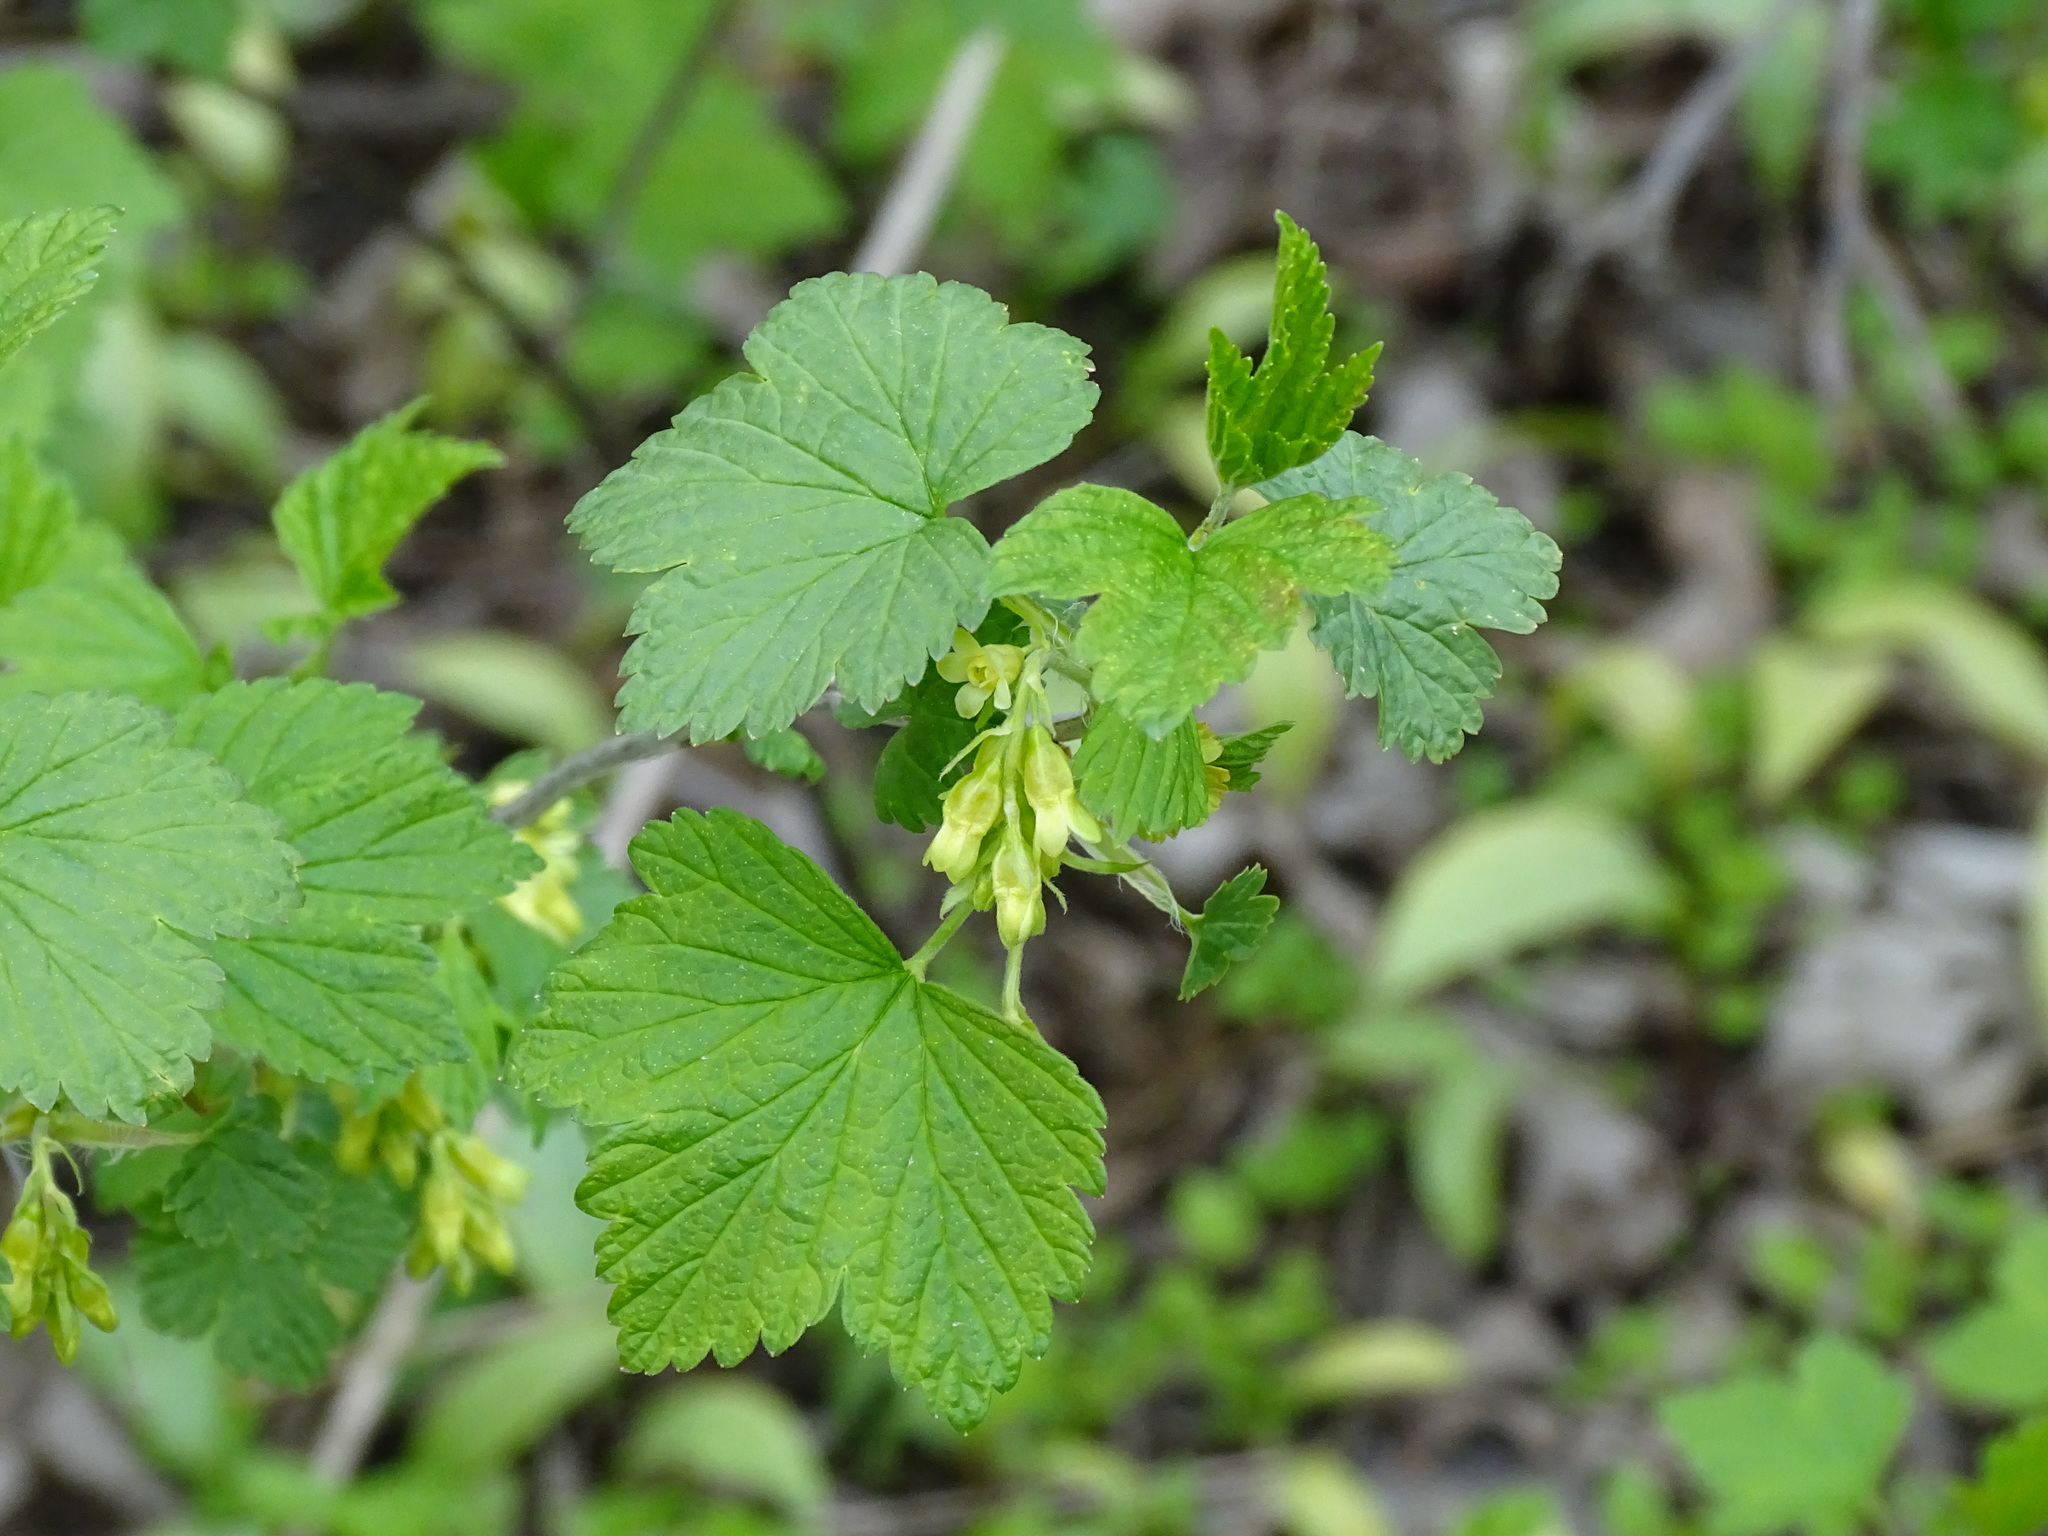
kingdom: Plantae
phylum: Tracheophyta
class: Magnoliopsida
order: Saxifragales
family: Grossulariaceae
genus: Ribes
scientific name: Ribes americanum
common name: American black currant
